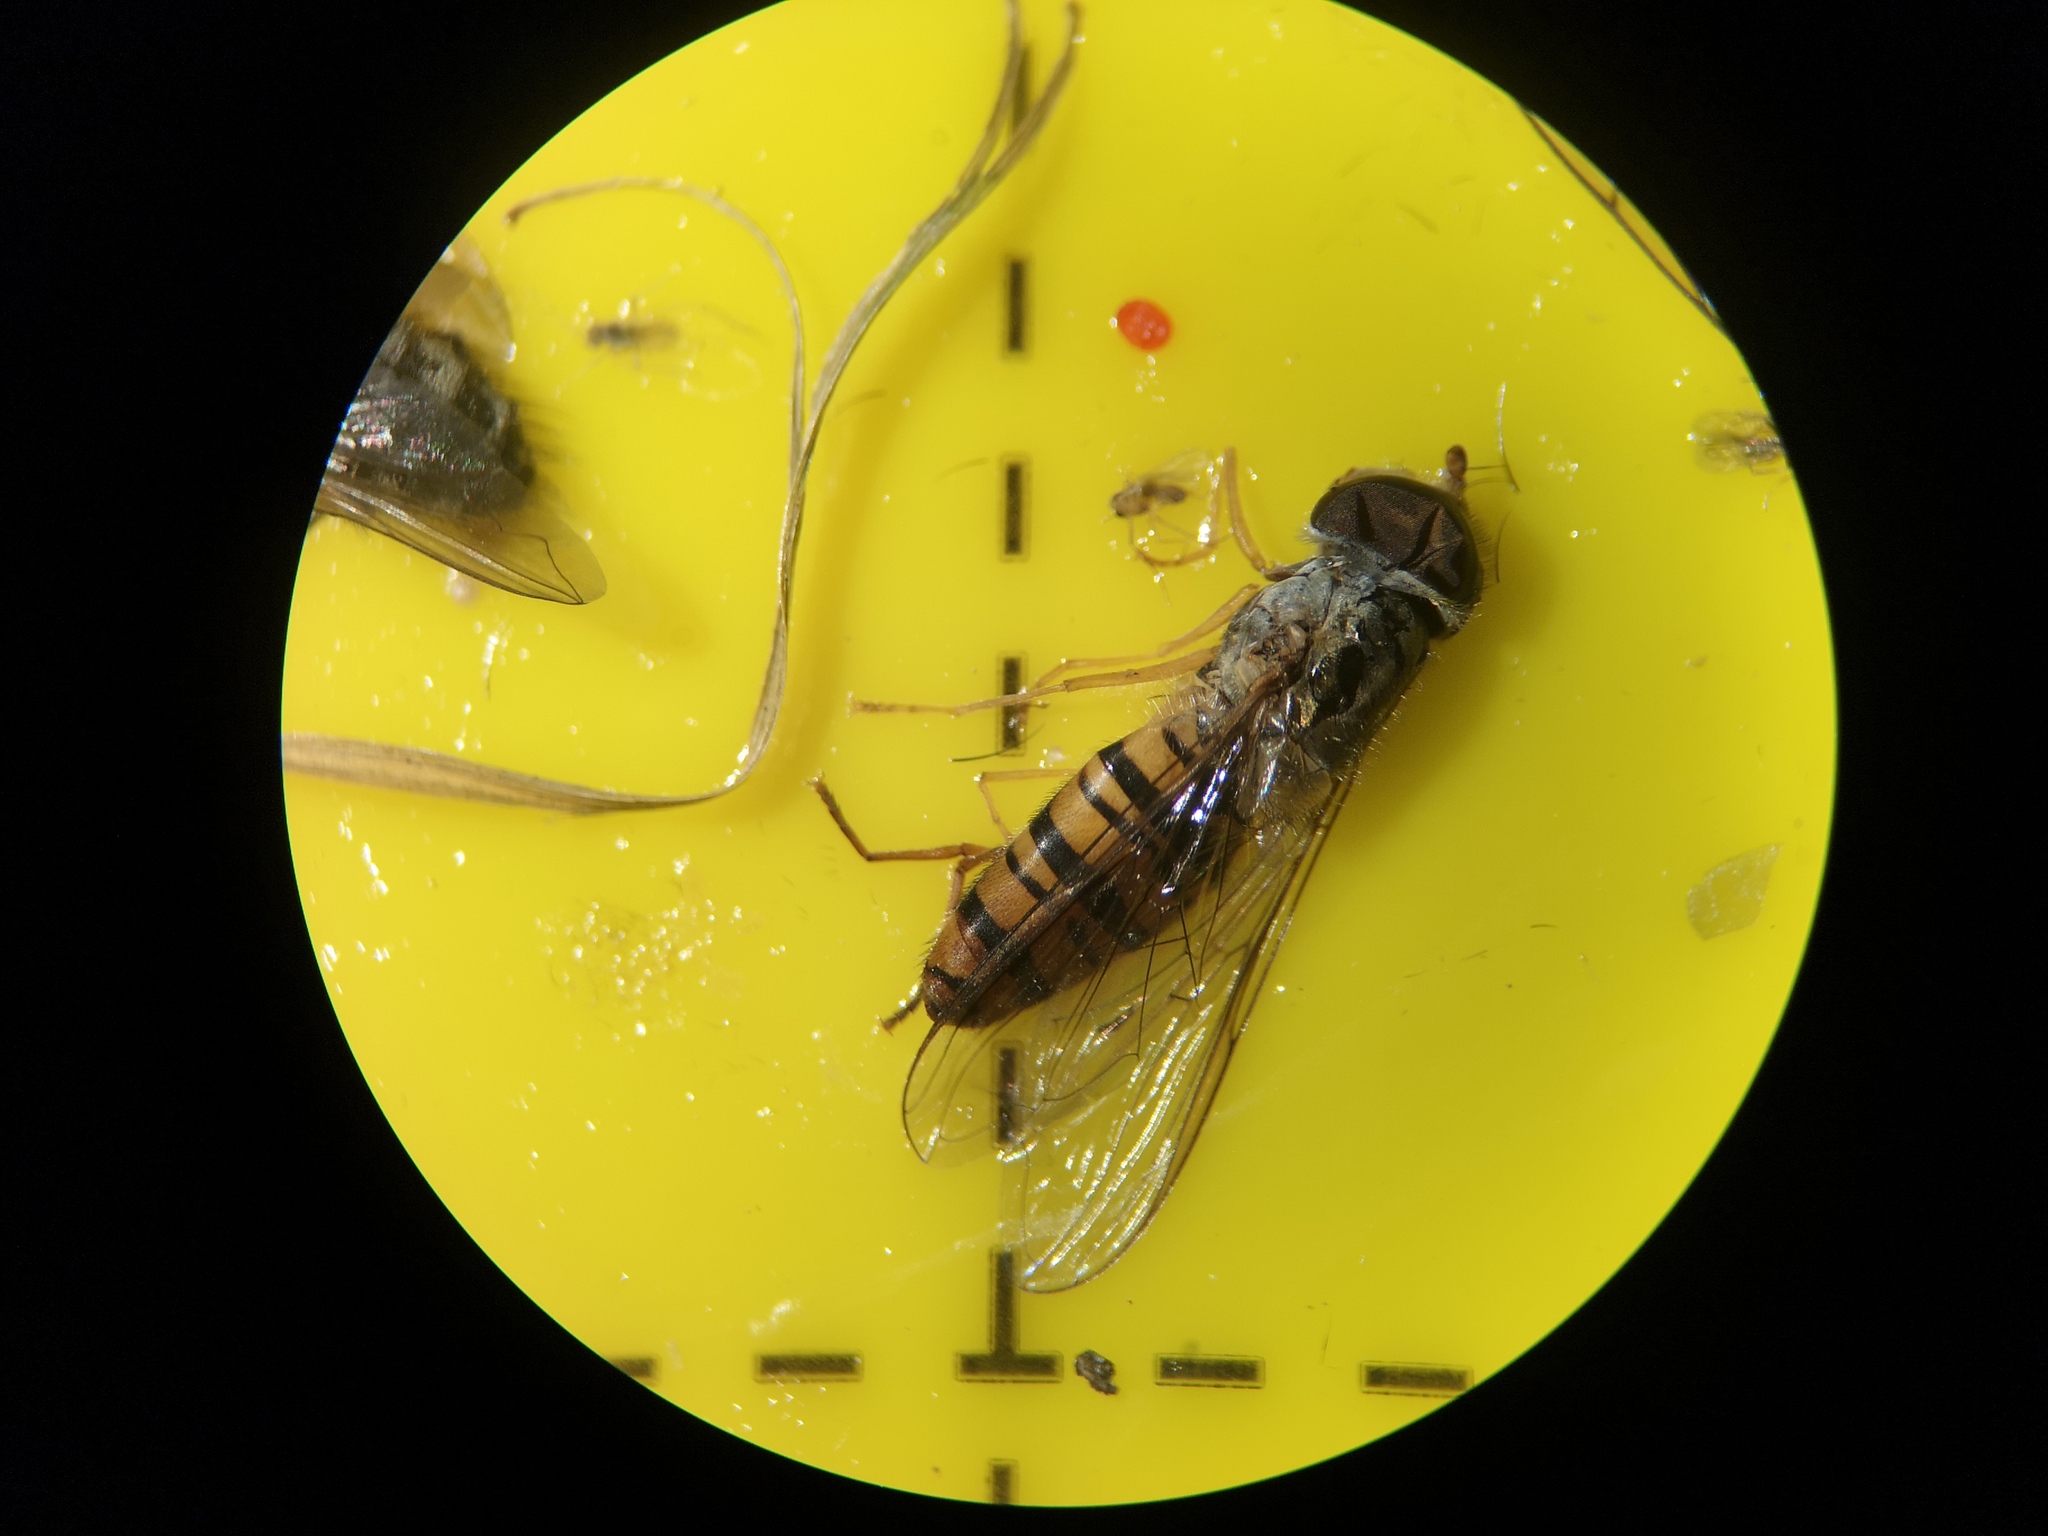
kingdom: Animalia
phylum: Arthropoda
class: Insecta
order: Diptera
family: Syrphidae
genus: Episyrphus
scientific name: Episyrphus balteatus
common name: Marmalade hoverfly
